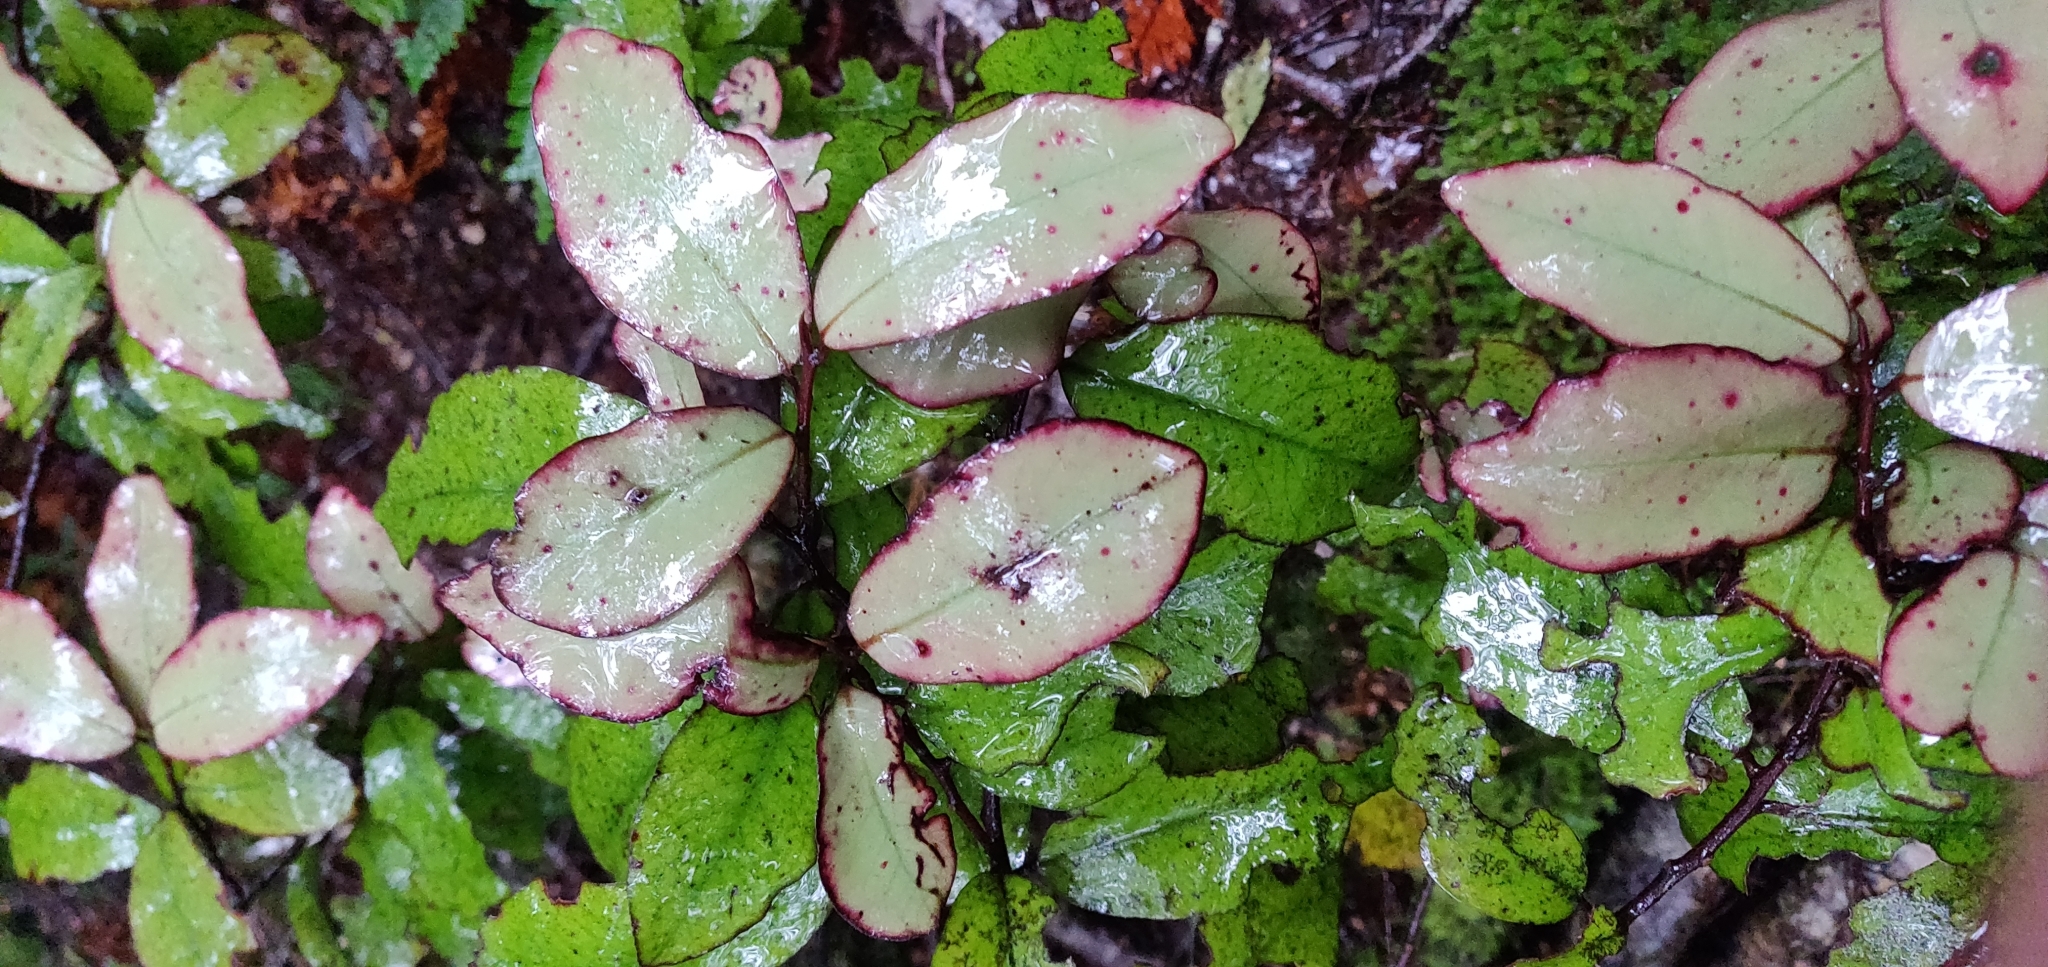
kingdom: Plantae
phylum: Tracheophyta
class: Magnoliopsida
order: Canellales
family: Winteraceae
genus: Pseudowintera
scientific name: Pseudowintera colorata
